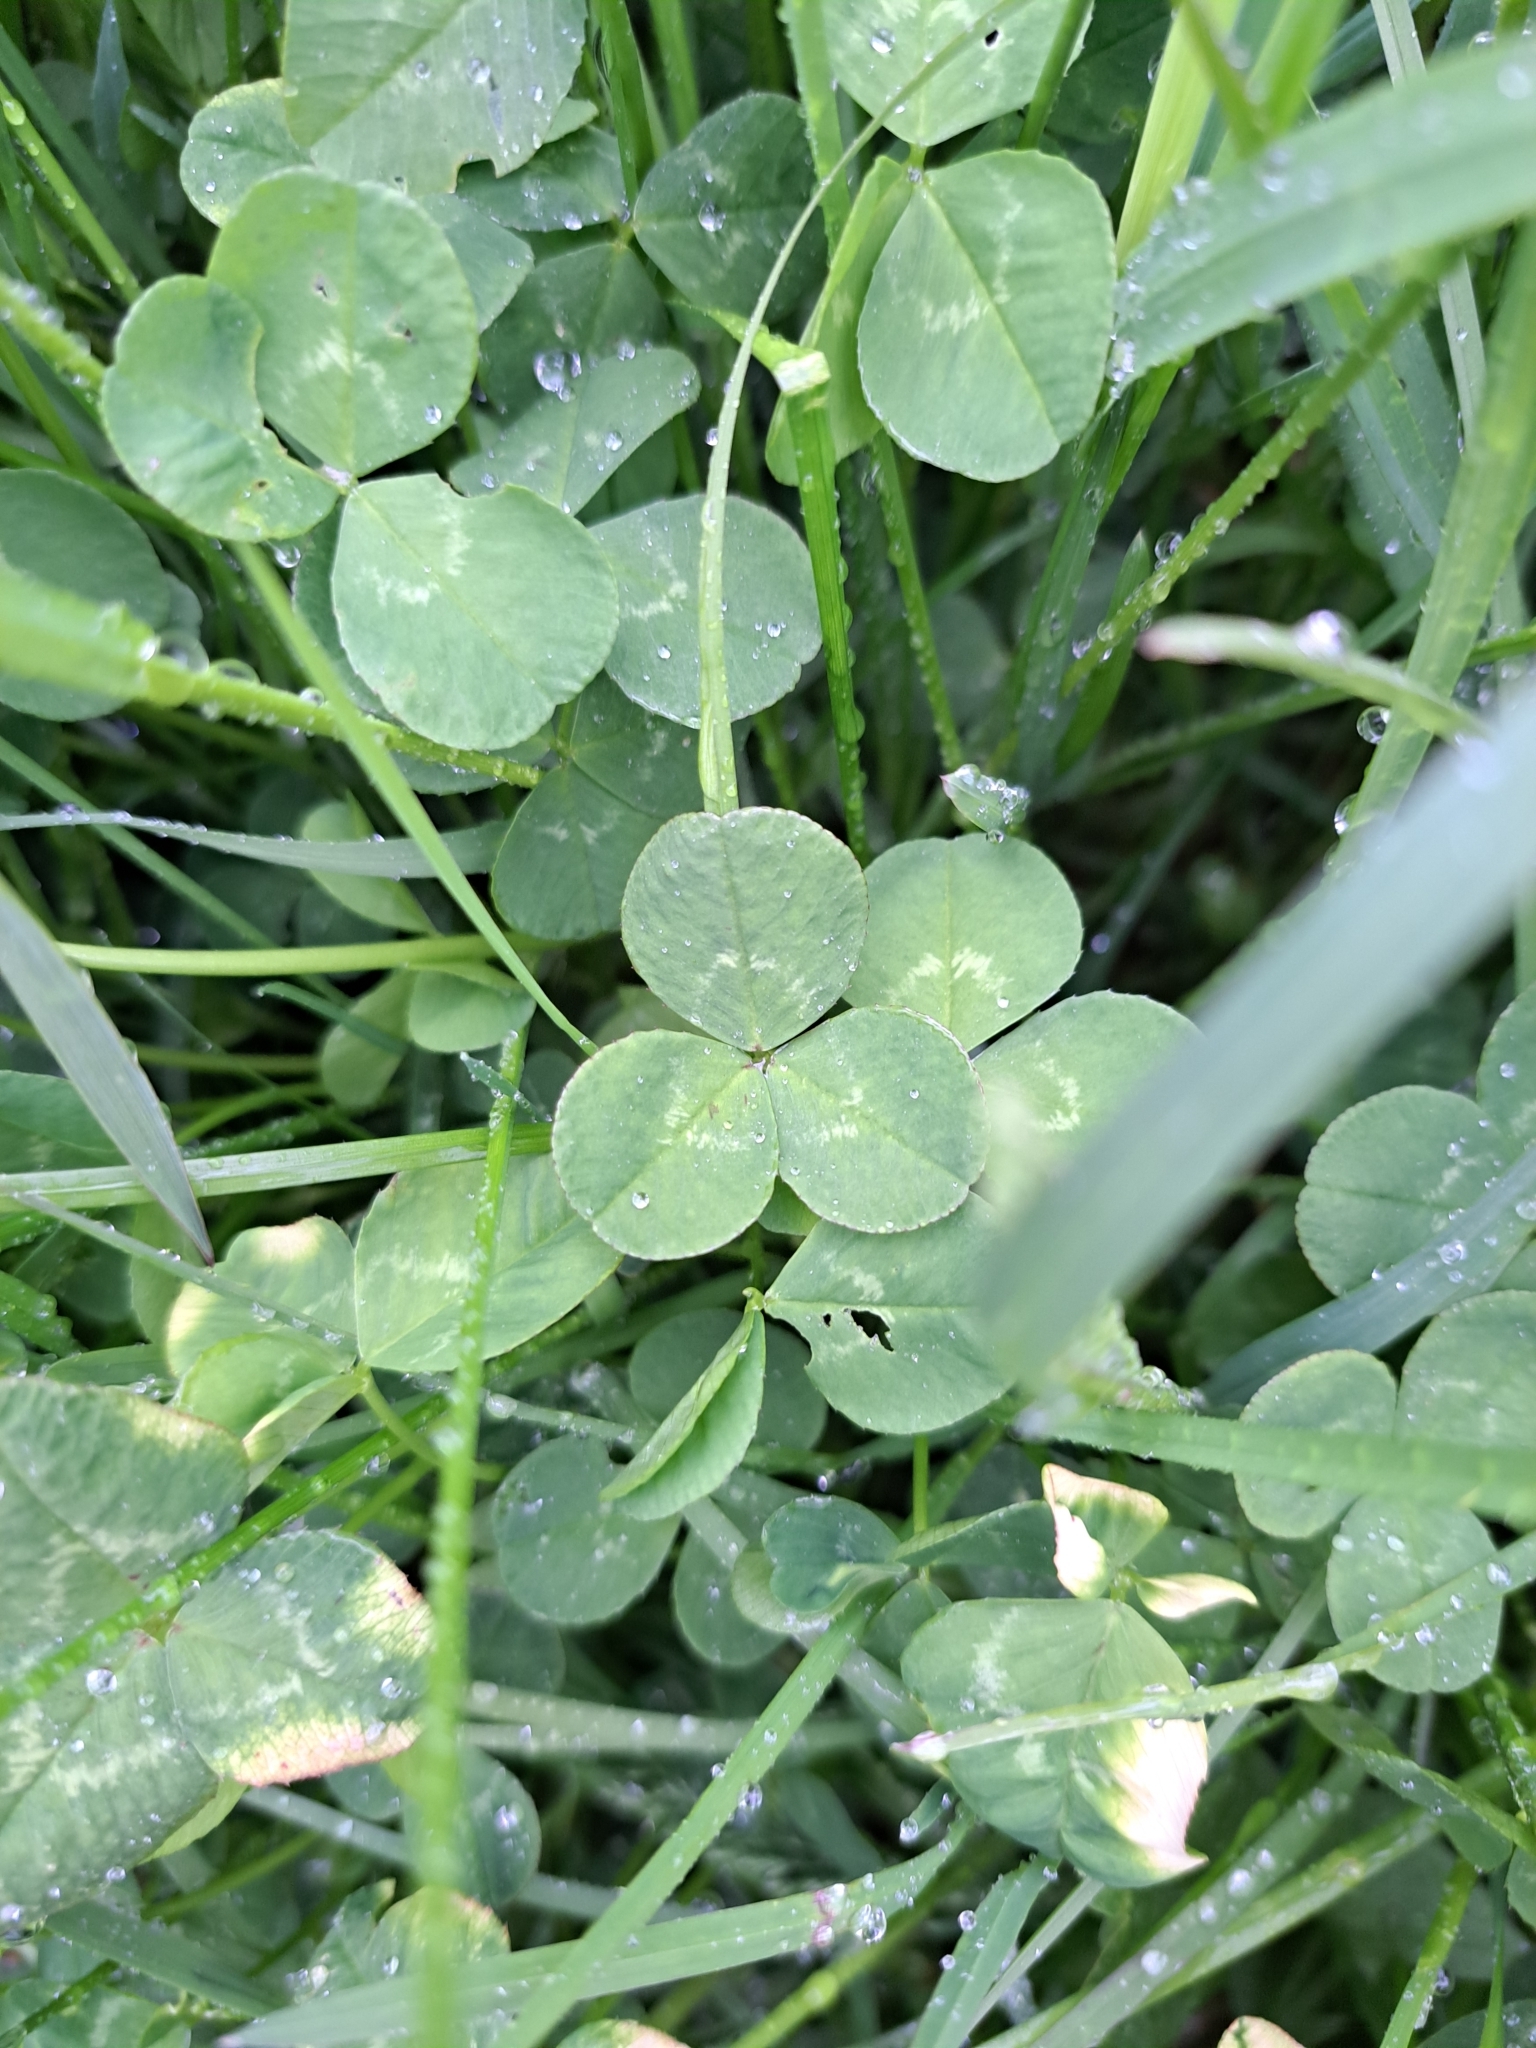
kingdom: Plantae
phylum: Tracheophyta
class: Magnoliopsida
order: Fabales
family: Fabaceae
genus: Trifolium
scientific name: Trifolium repens
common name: White clover
